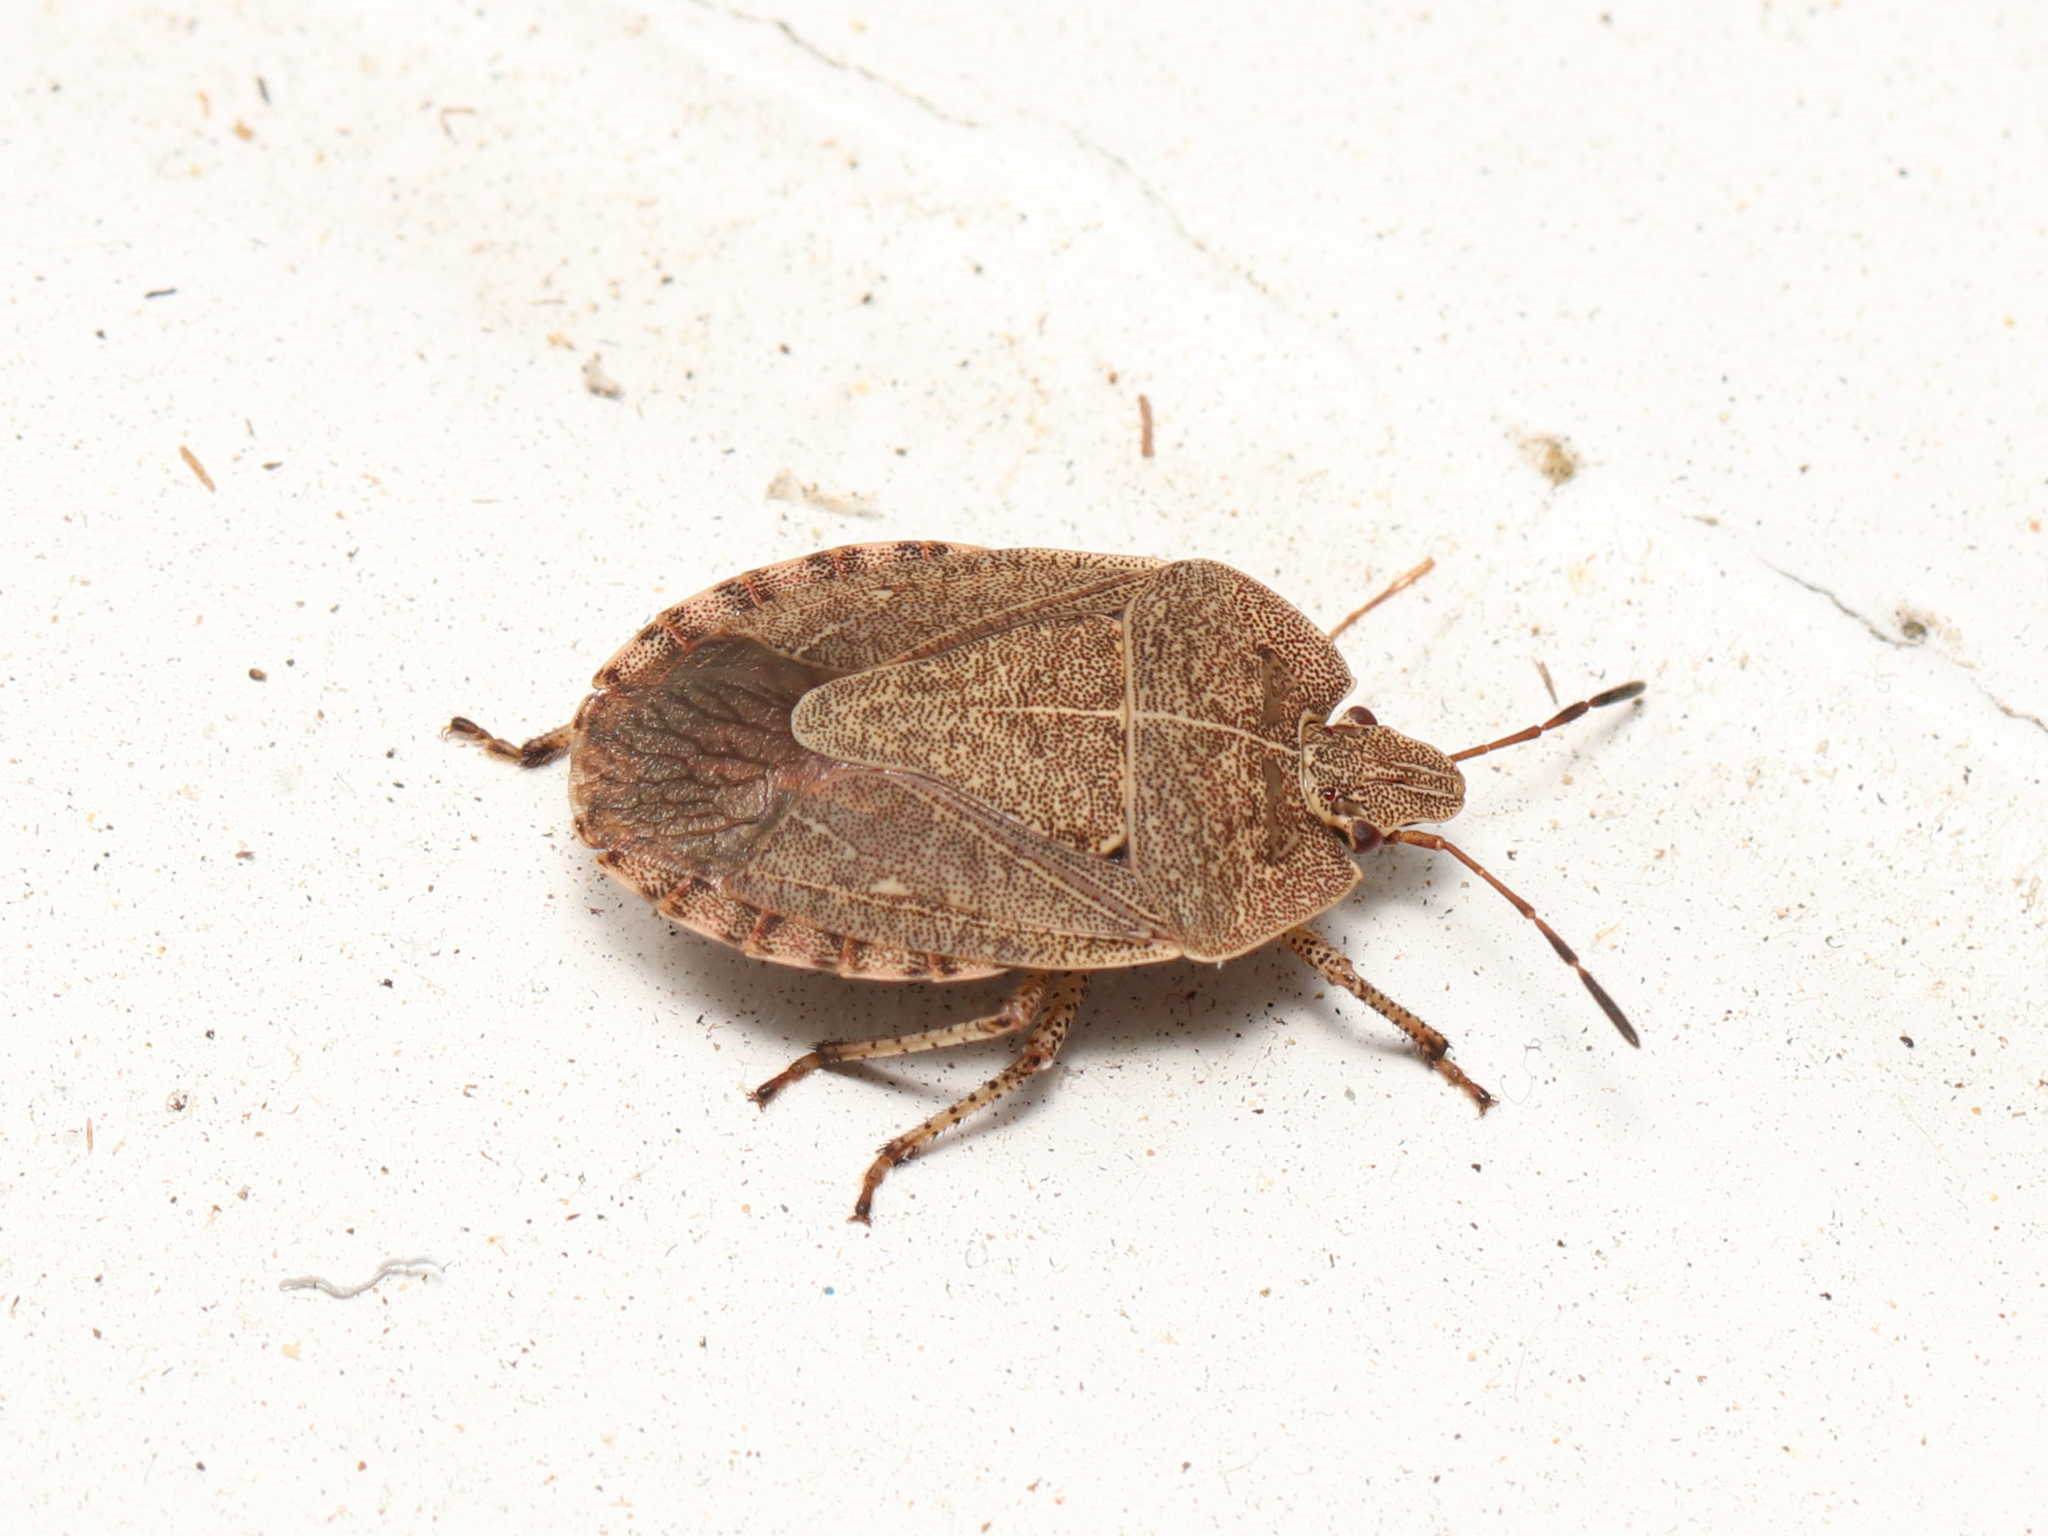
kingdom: Animalia
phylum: Arthropoda
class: Insecta
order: Hemiptera
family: Pentatomidae
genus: Menecles
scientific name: Menecles insertus
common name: Elf shoe stink bug
